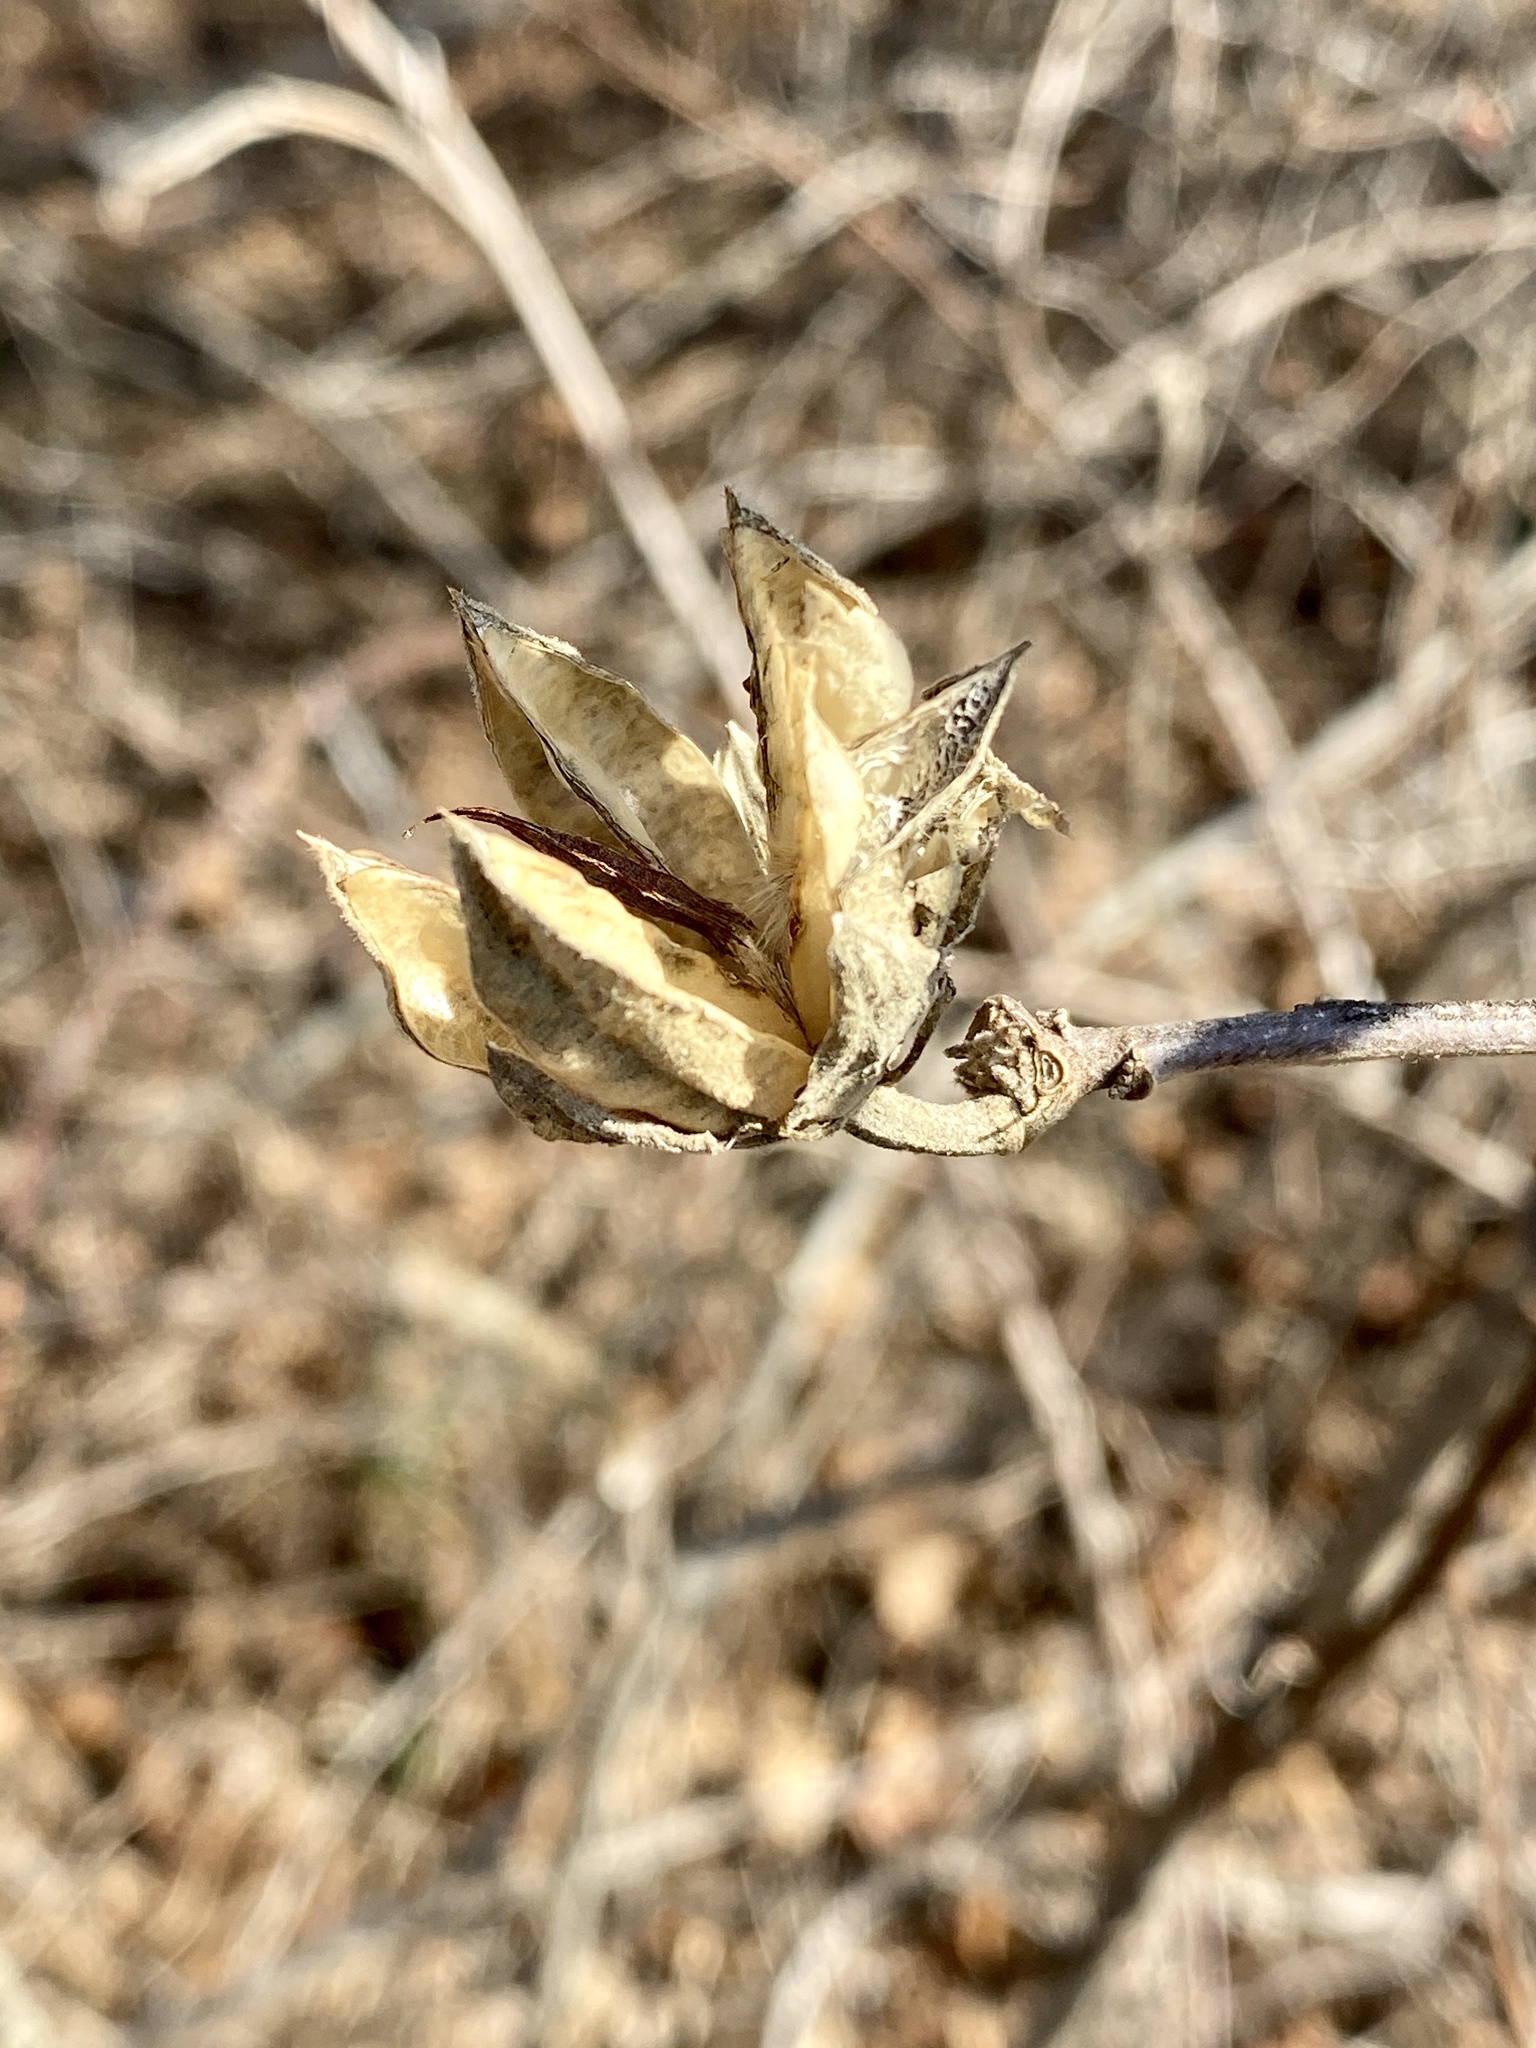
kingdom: Plantae
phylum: Tracheophyta
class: Magnoliopsida
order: Malvales
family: Malvaceae
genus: Hibiscus
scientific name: Hibiscus syriacus
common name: Syrian ketmia
